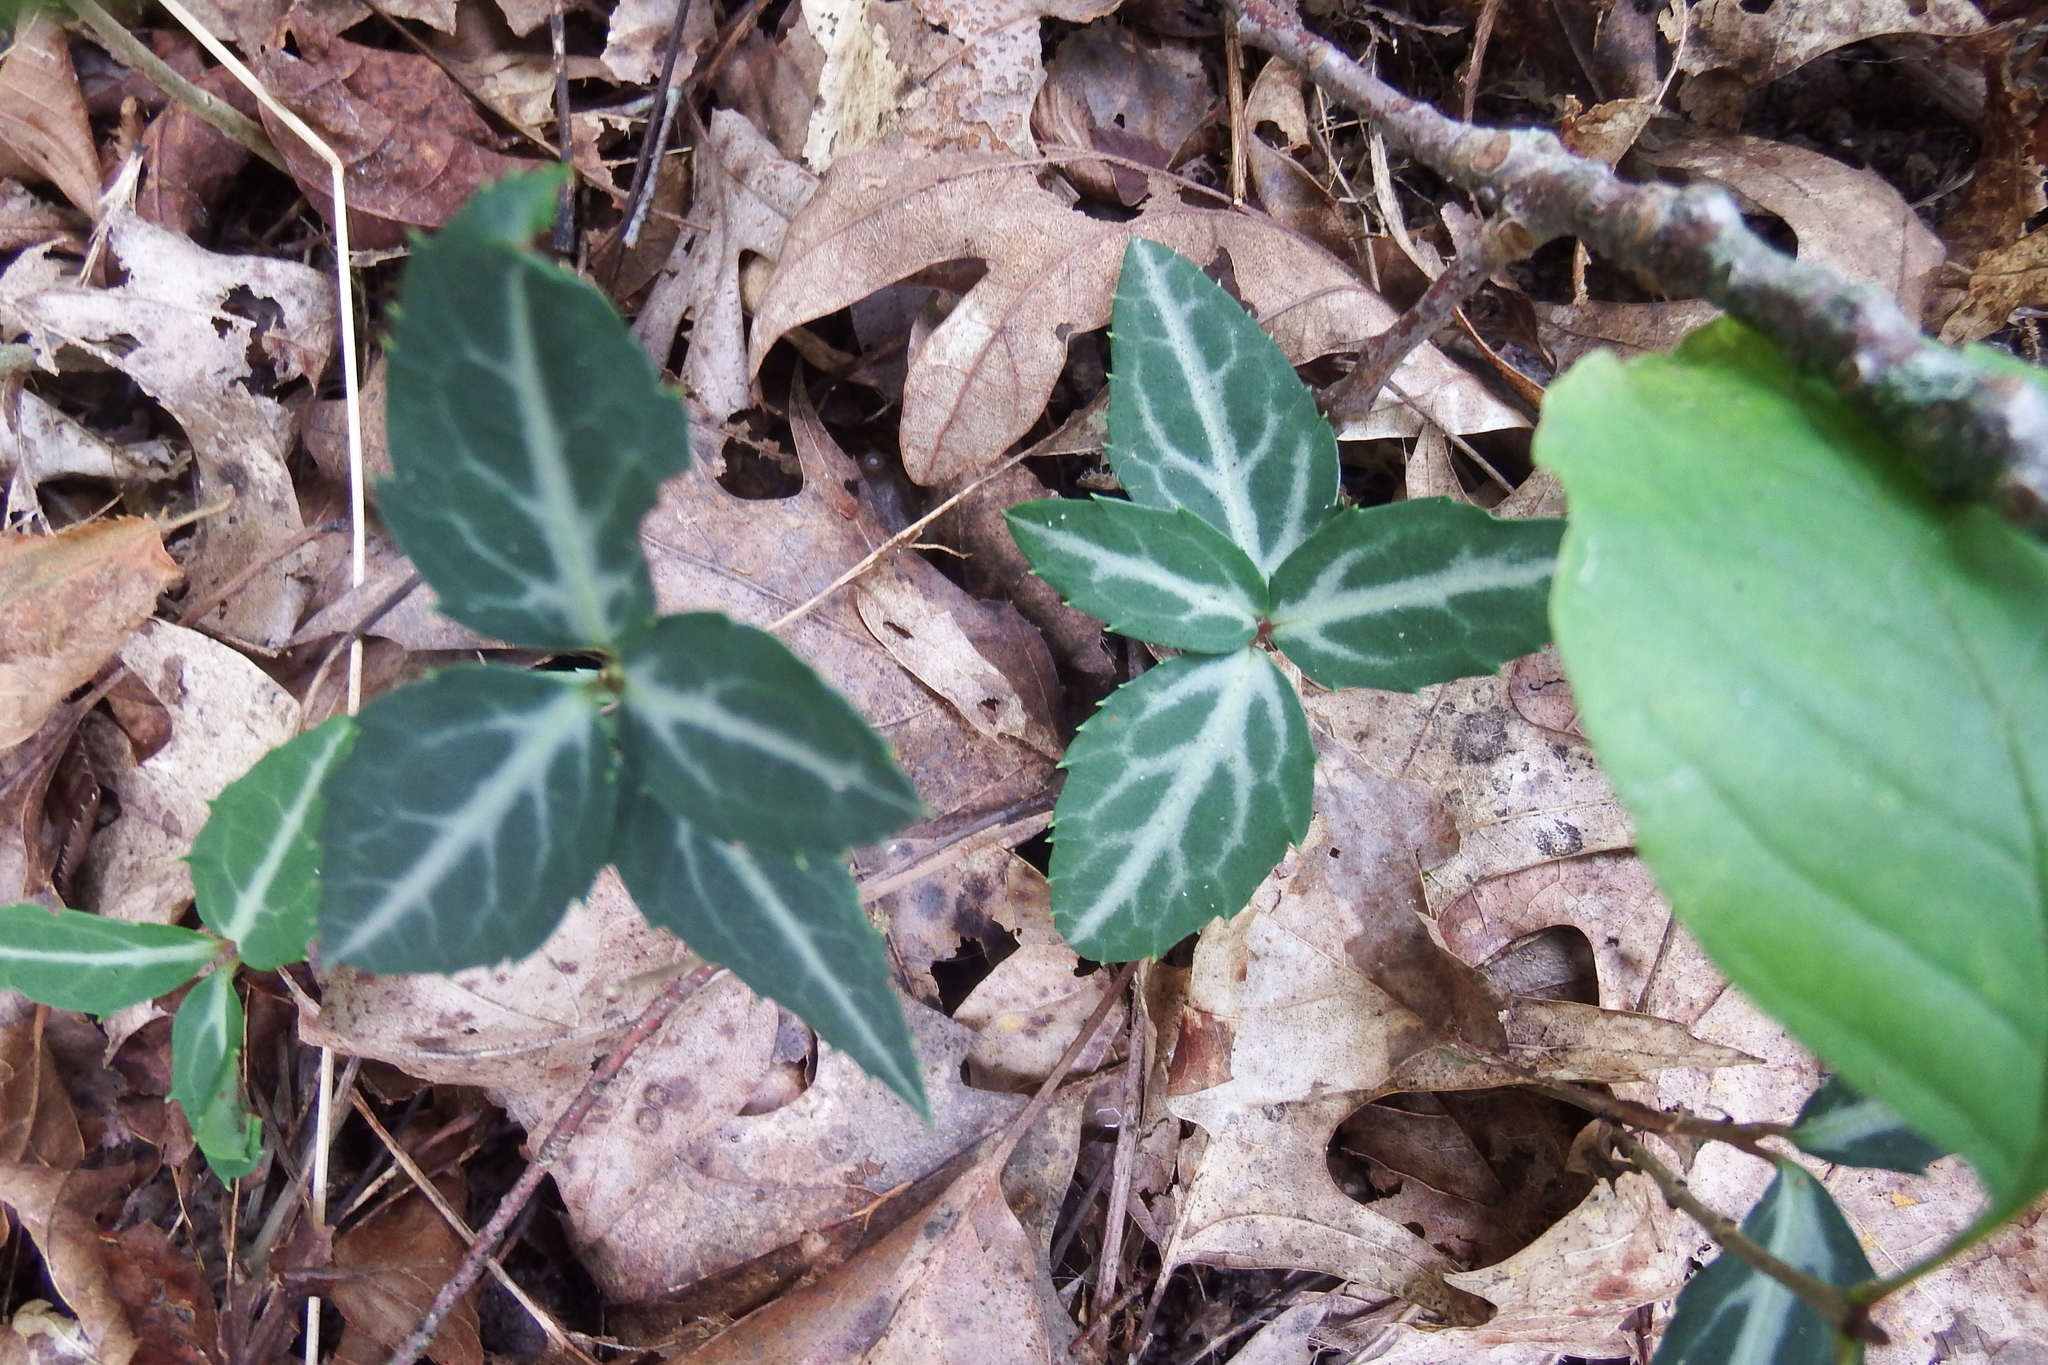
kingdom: Plantae
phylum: Tracheophyta
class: Magnoliopsida
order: Ericales
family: Ericaceae
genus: Chimaphila
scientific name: Chimaphila maculata
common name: Spotted pipsissewa
